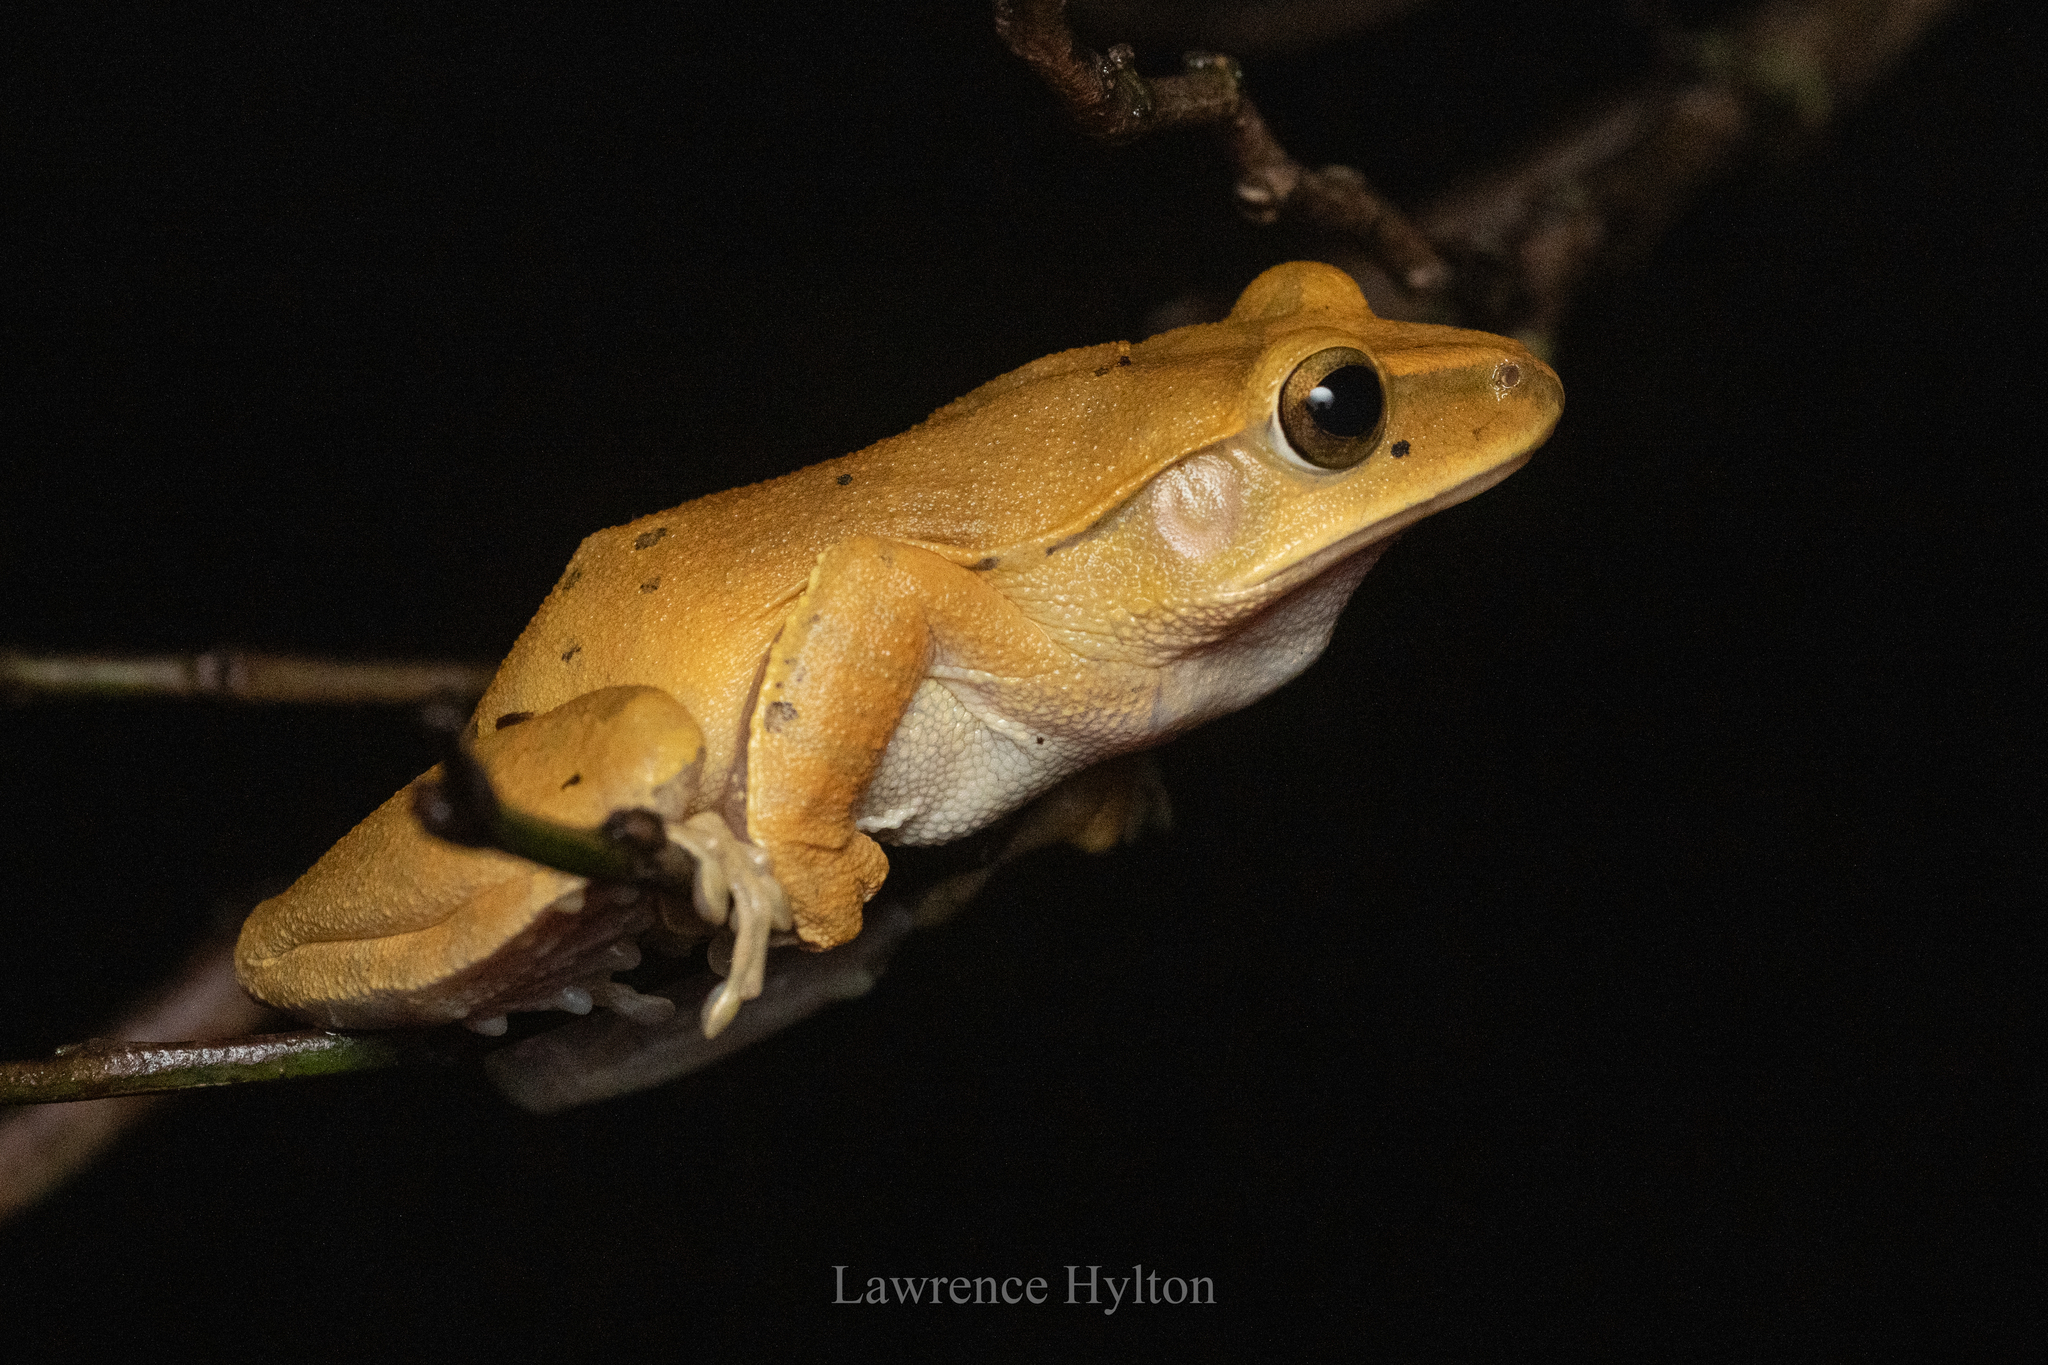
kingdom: Animalia
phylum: Chordata
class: Amphibia
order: Anura
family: Rhacophoridae
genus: Polypedates
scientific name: Polypedates megacephalus
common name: Hong kong whipping frog
